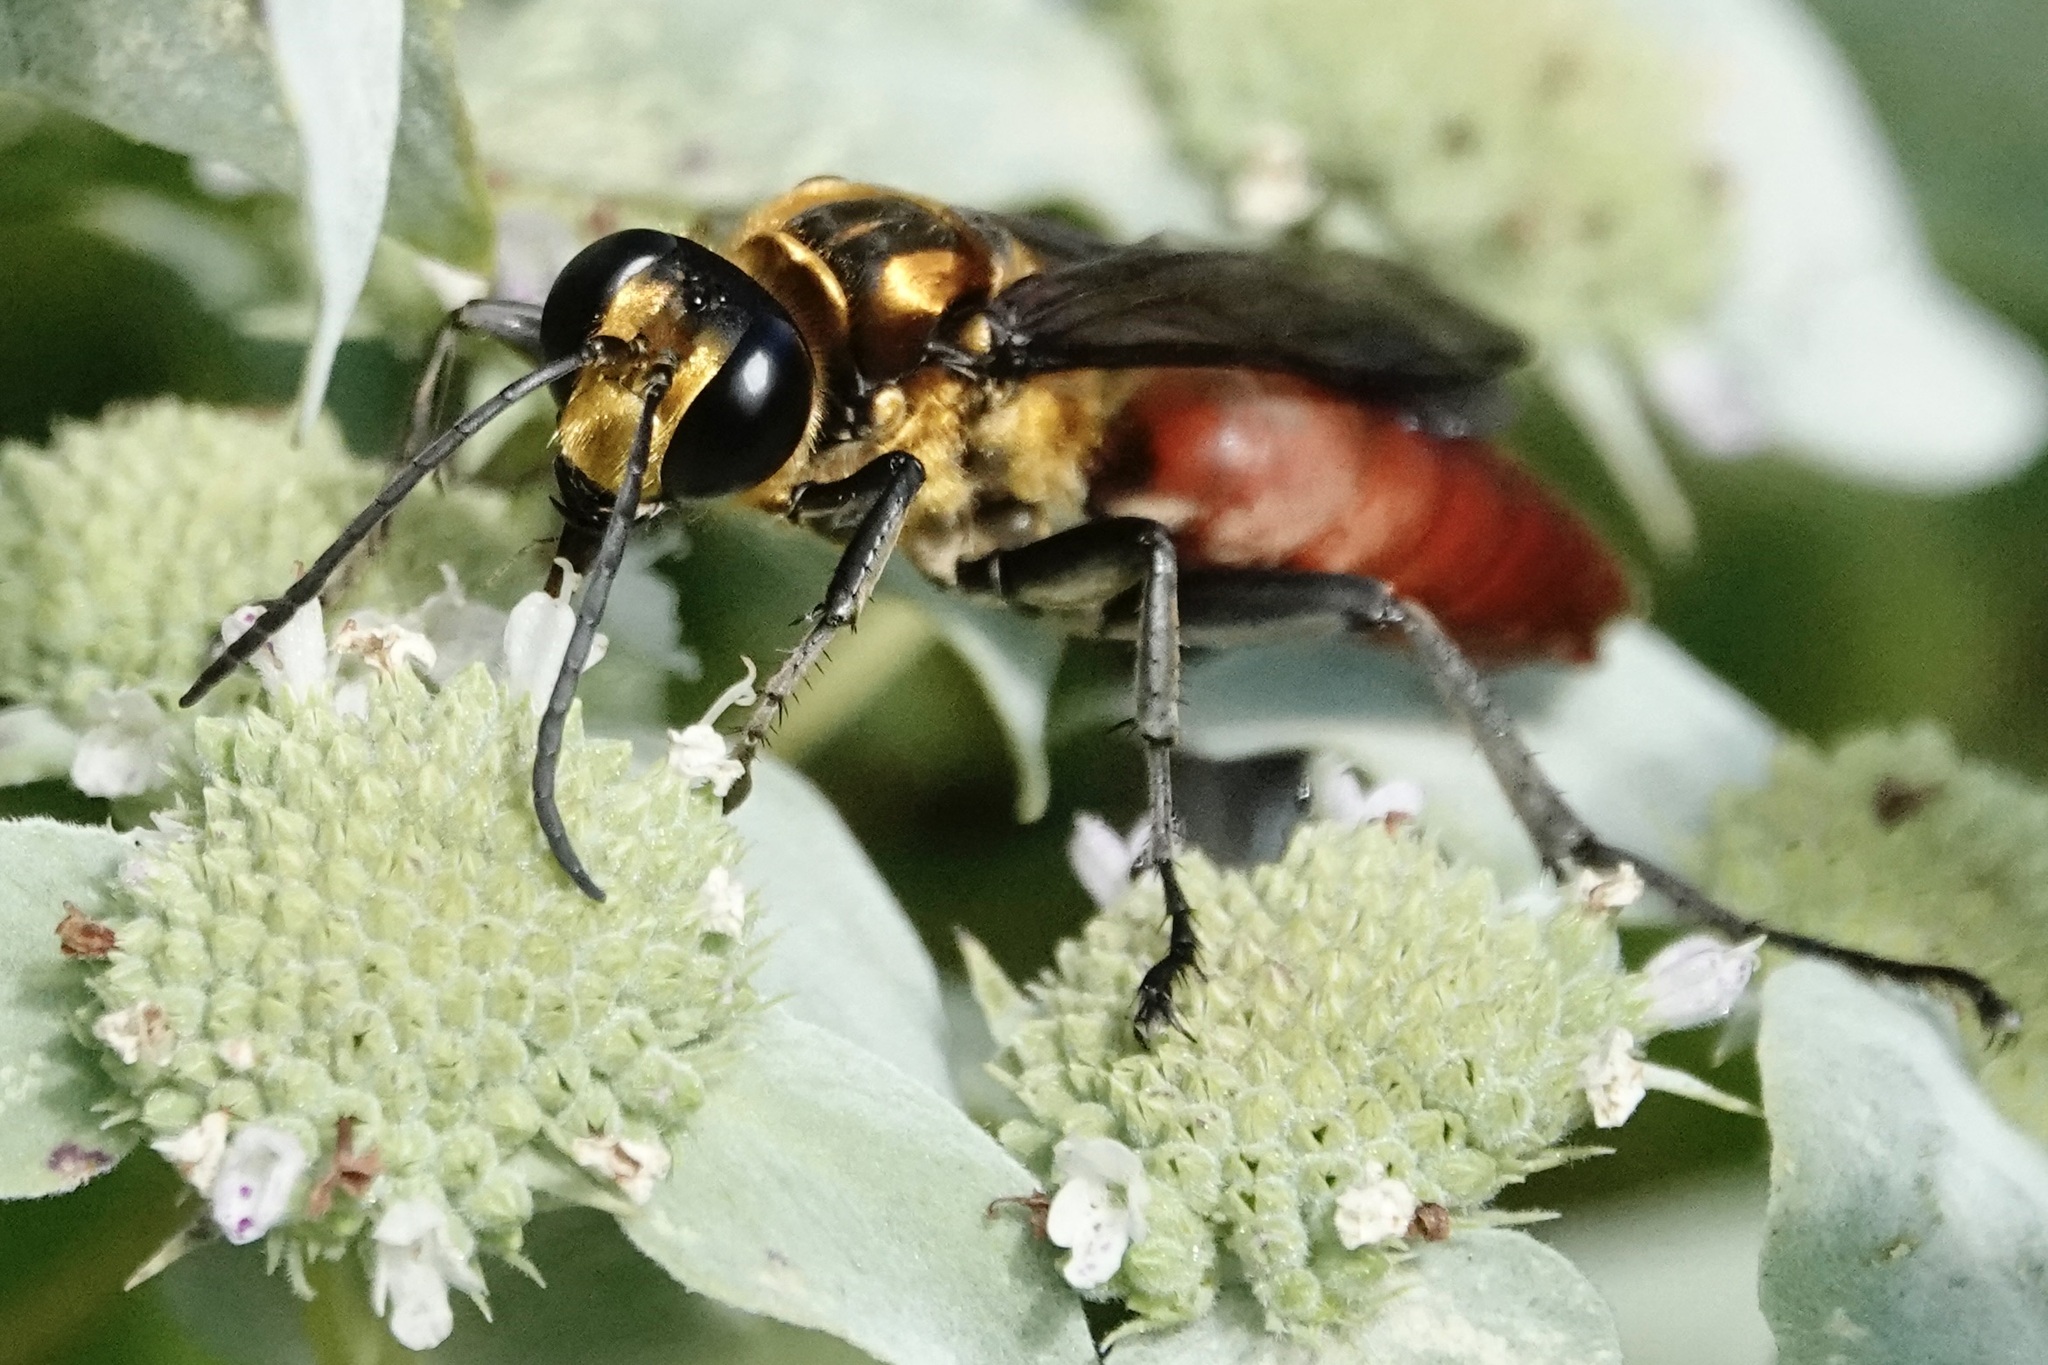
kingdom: Animalia
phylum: Arthropoda
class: Insecta
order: Hymenoptera
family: Sphecidae
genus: Sphex
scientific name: Sphex habenus
